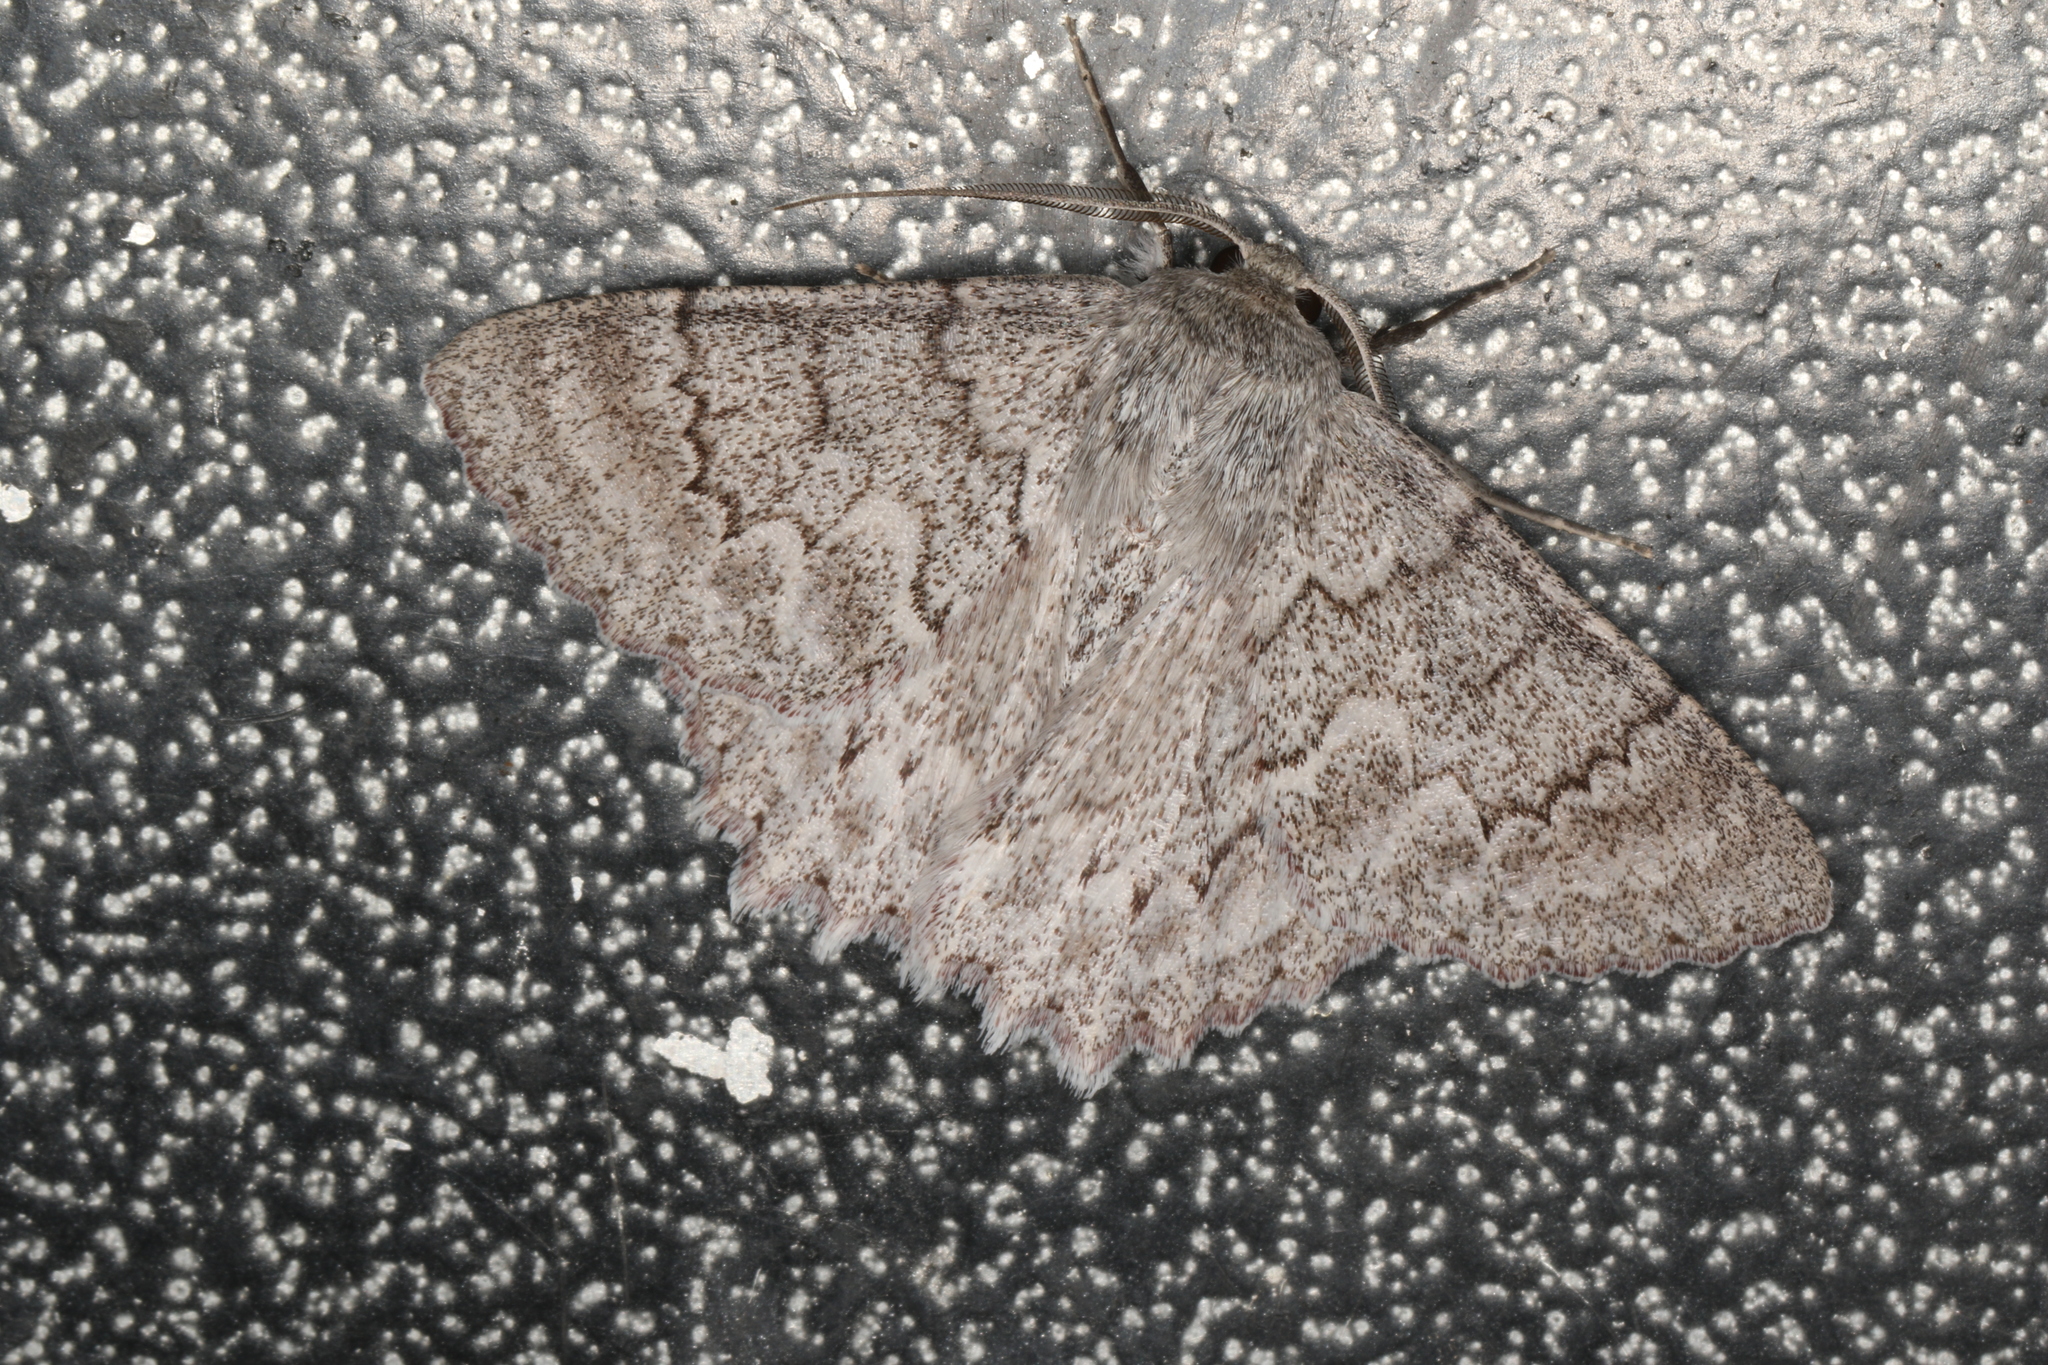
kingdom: Animalia
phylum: Arthropoda
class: Insecta
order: Lepidoptera
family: Geometridae
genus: Crypsiphona
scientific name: Crypsiphona ocultaria
